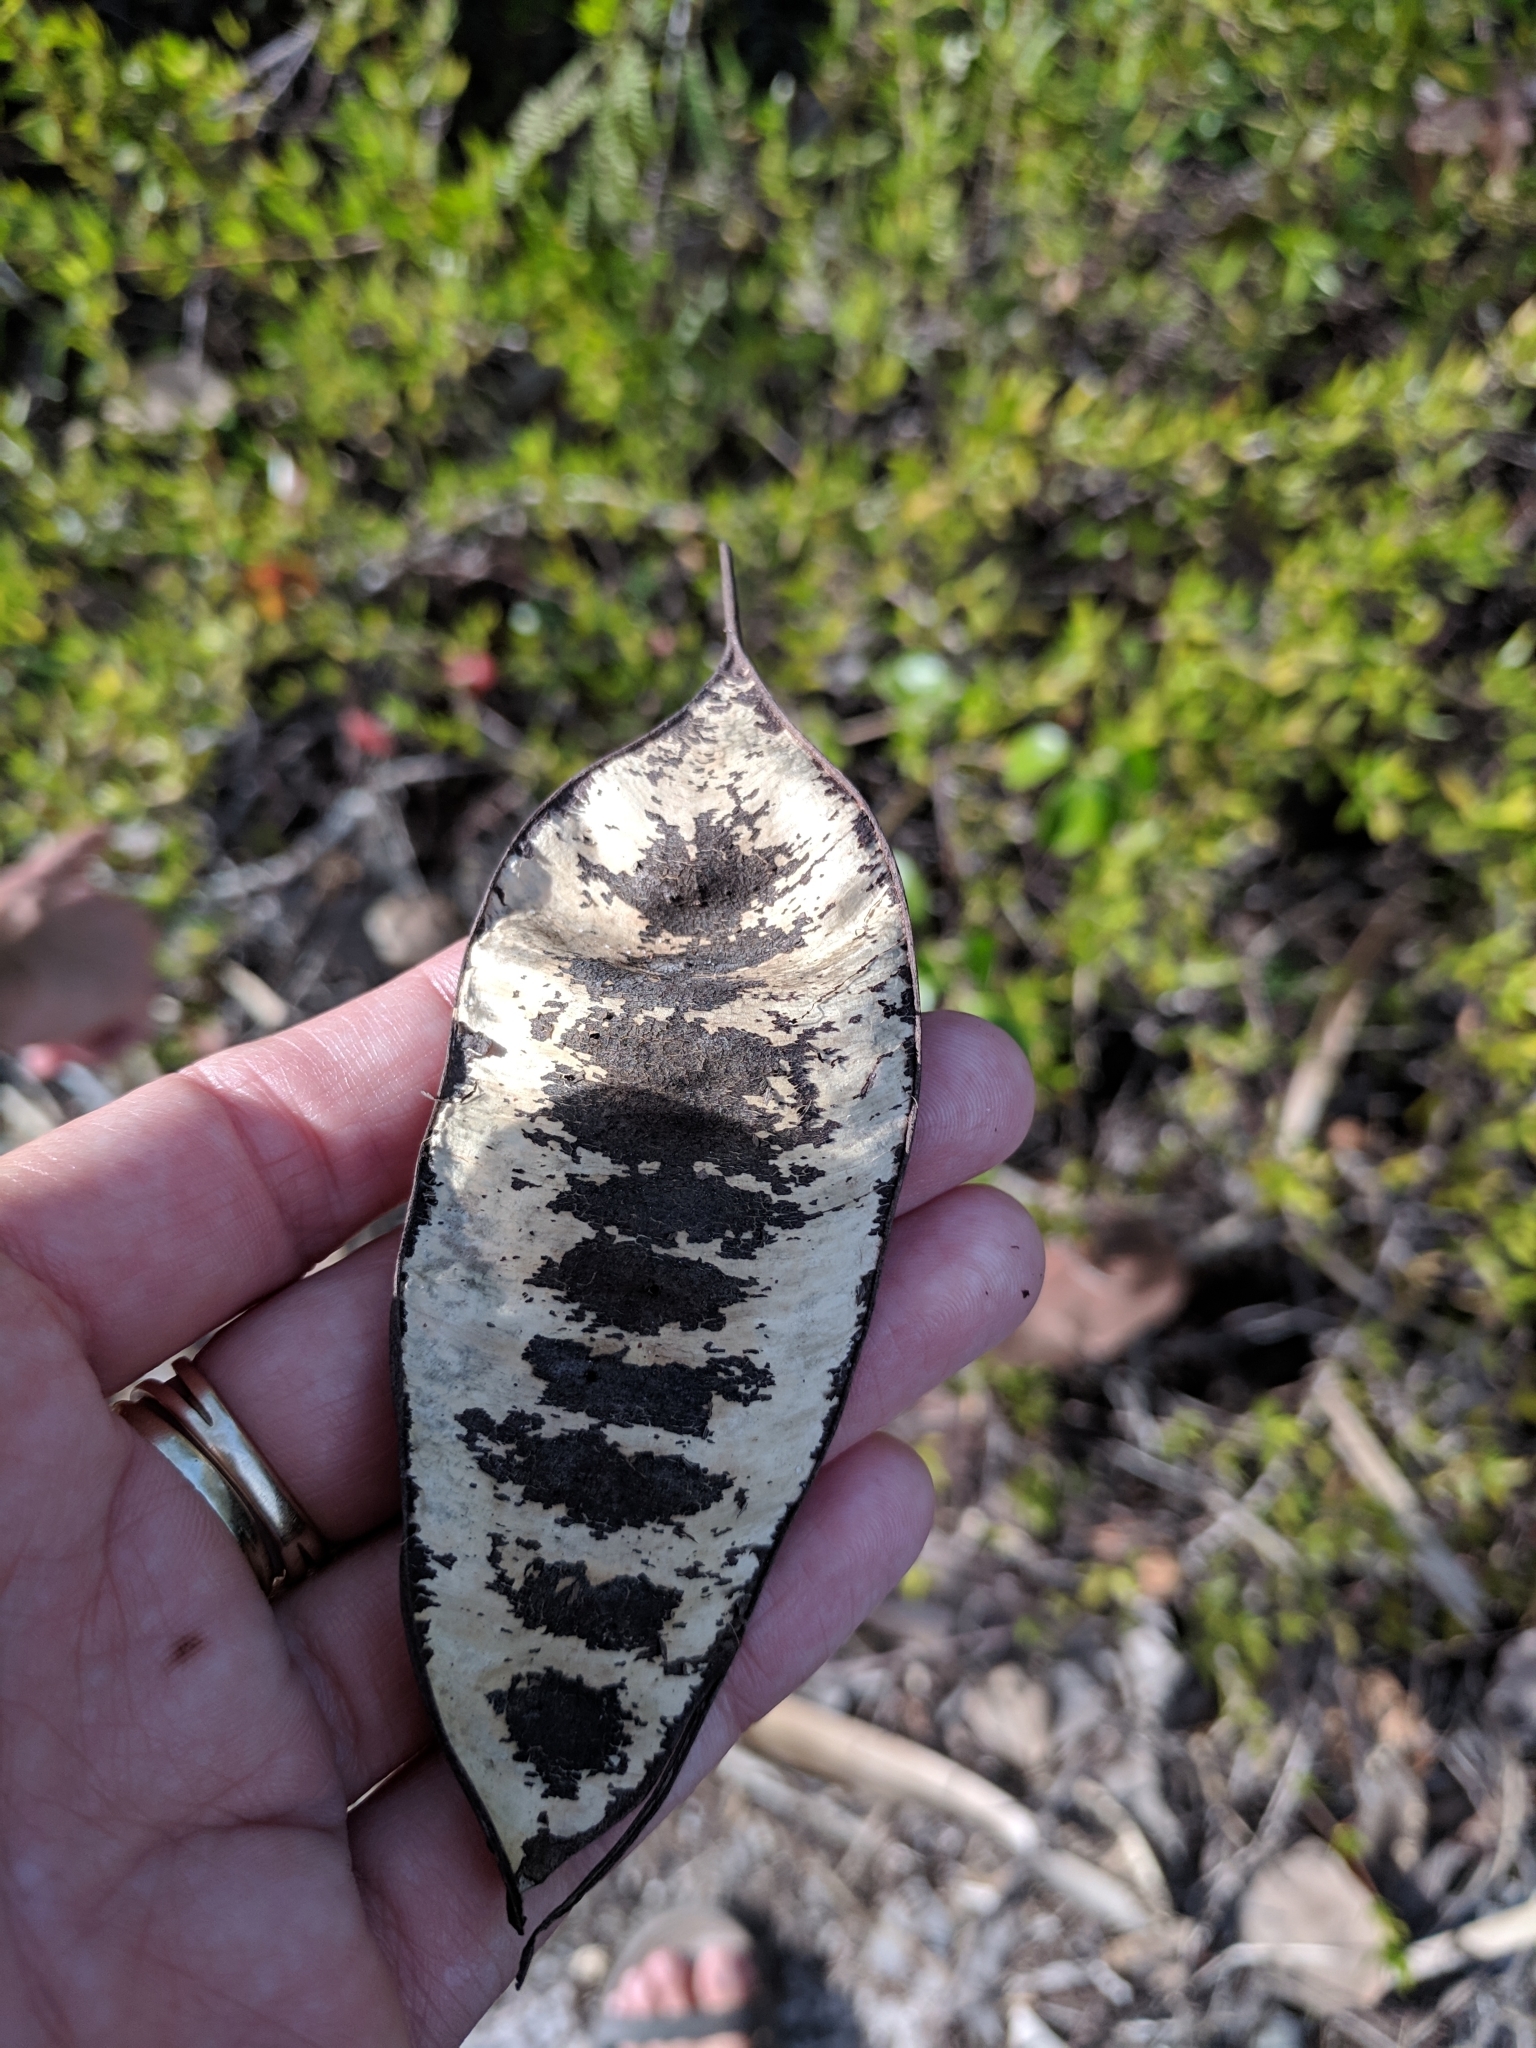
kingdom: Plantae
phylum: Tracheophyta
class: Magnoliopsida
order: Fabales
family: Fabaceae
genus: Lysiloma
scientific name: Lysiloma latisiliquum
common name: Wild tamarind
